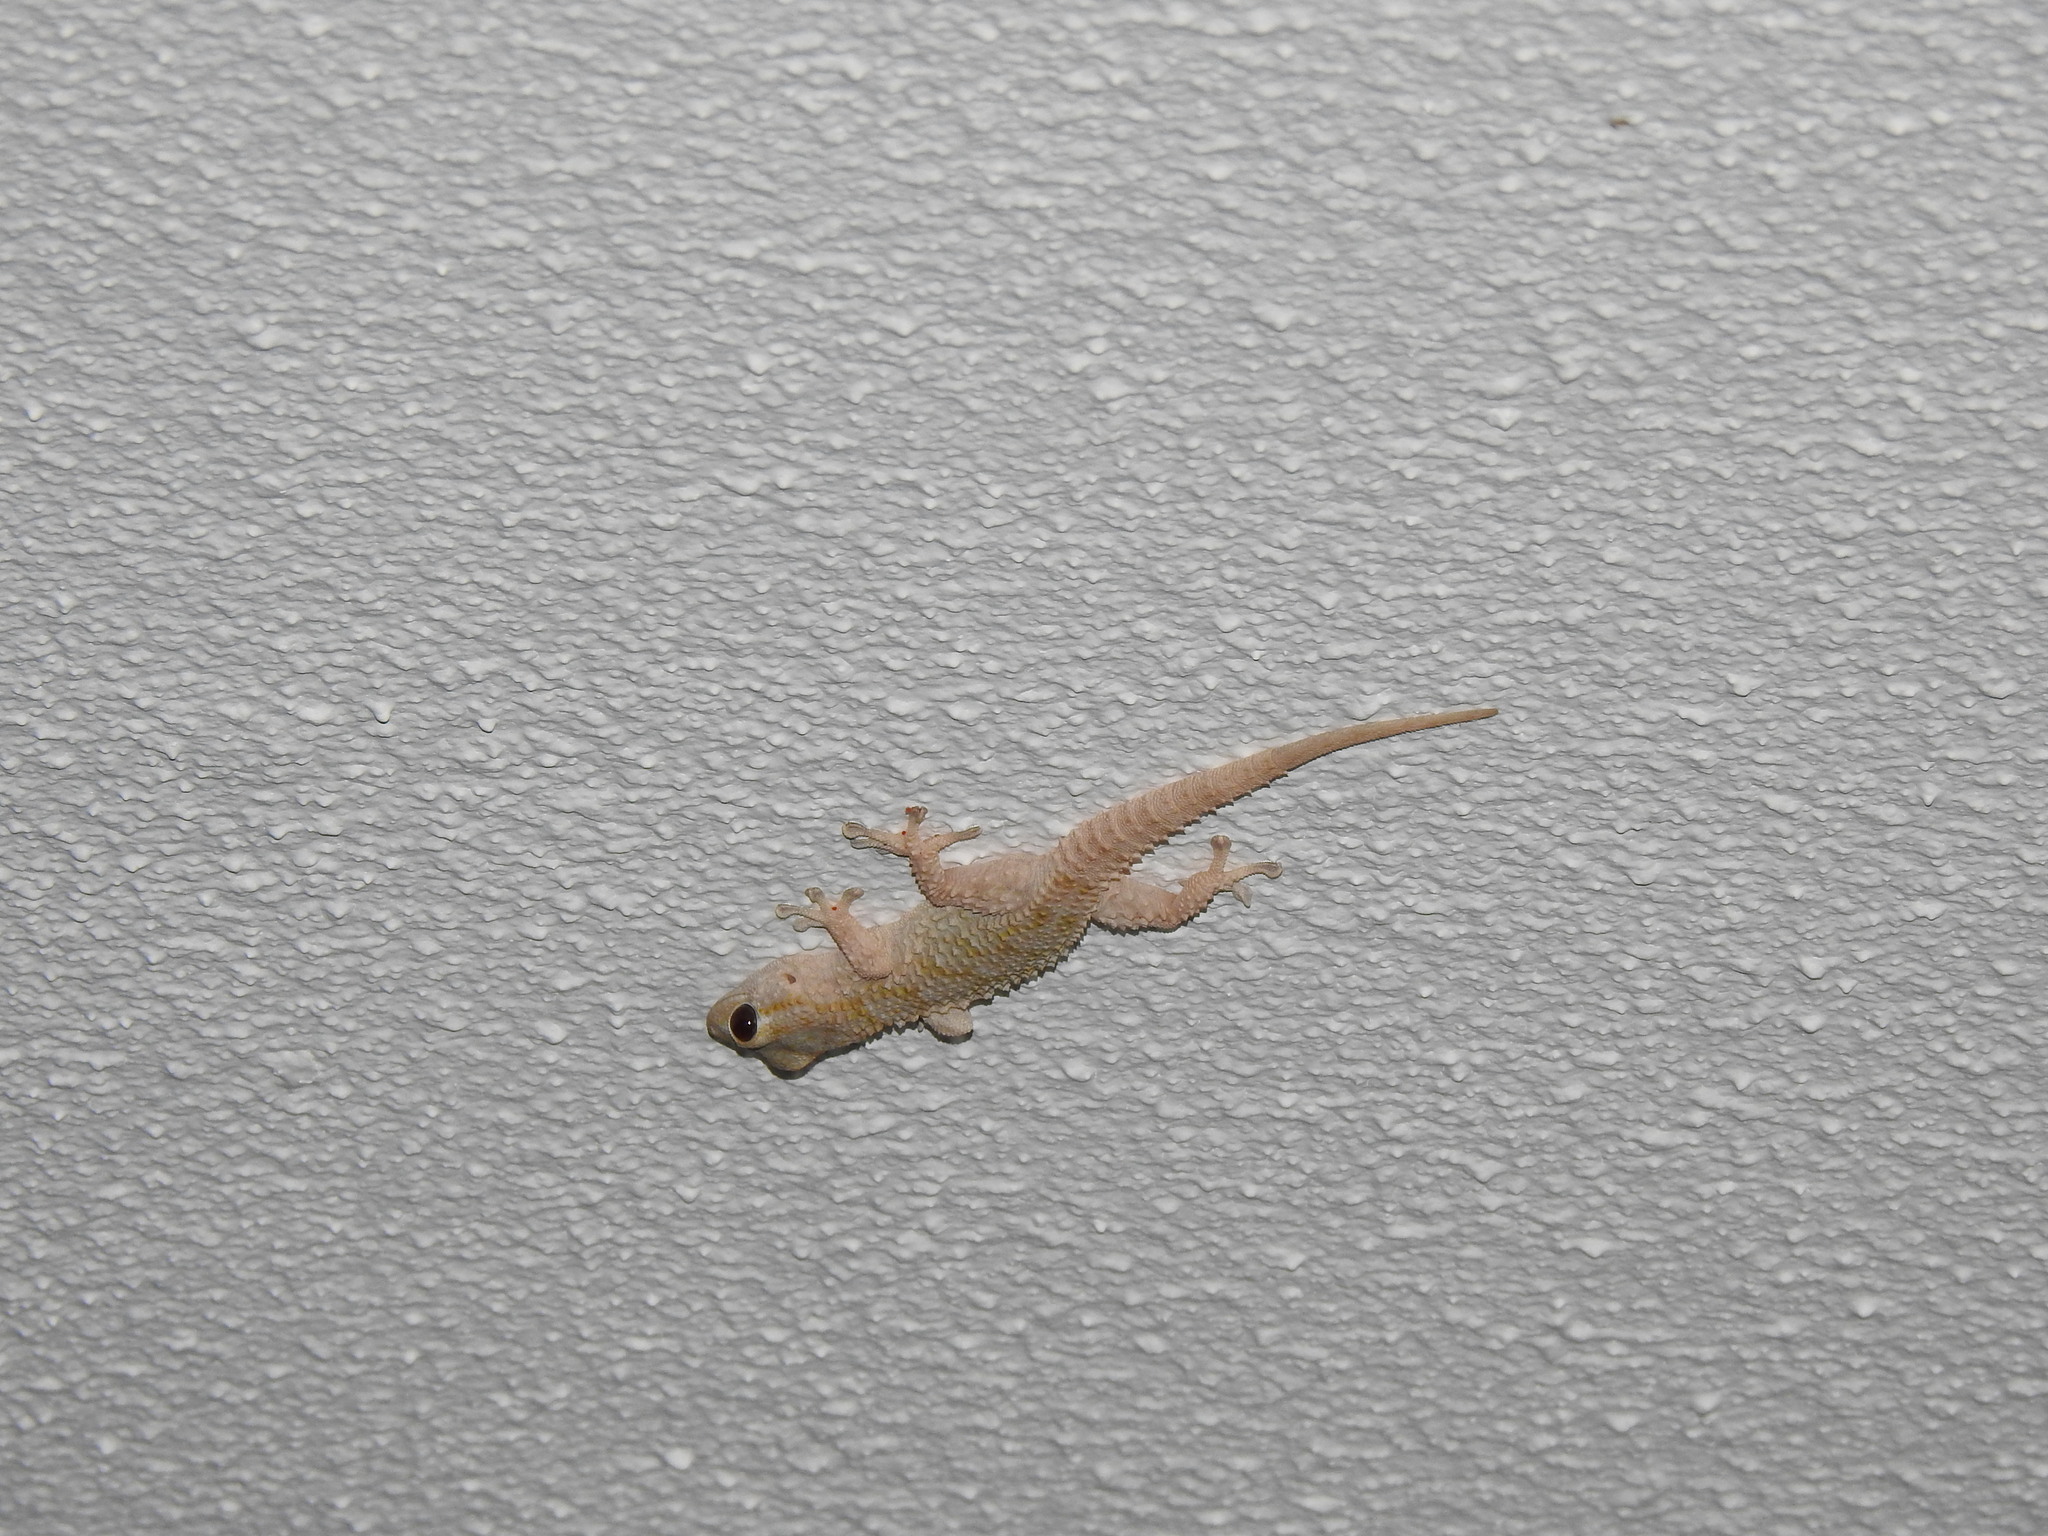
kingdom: Animalia
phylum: Chordata
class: Squamata
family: Phyllodactylidae
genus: Tarentola
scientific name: Tarentola mauritanica
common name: Moorish gecko
